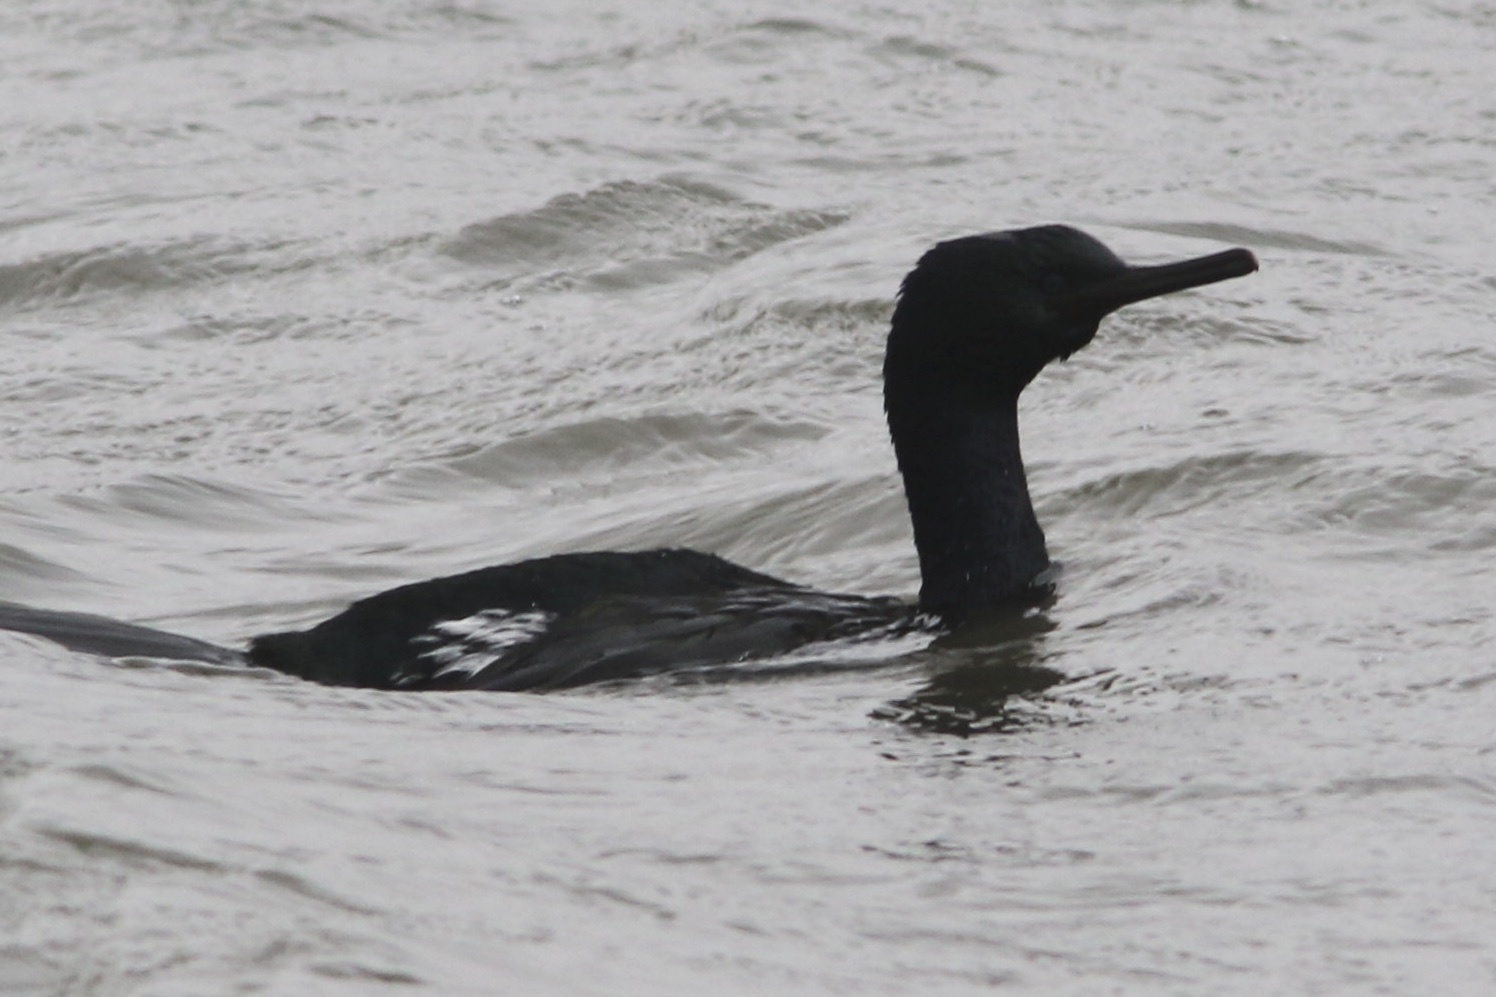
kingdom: Animalia
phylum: Chordata
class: Aves
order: Suliformes
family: Phalacrocoracidae
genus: Phalacrocorax
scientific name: Phalacrocorax pelagicus
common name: Pelagic cormorant
